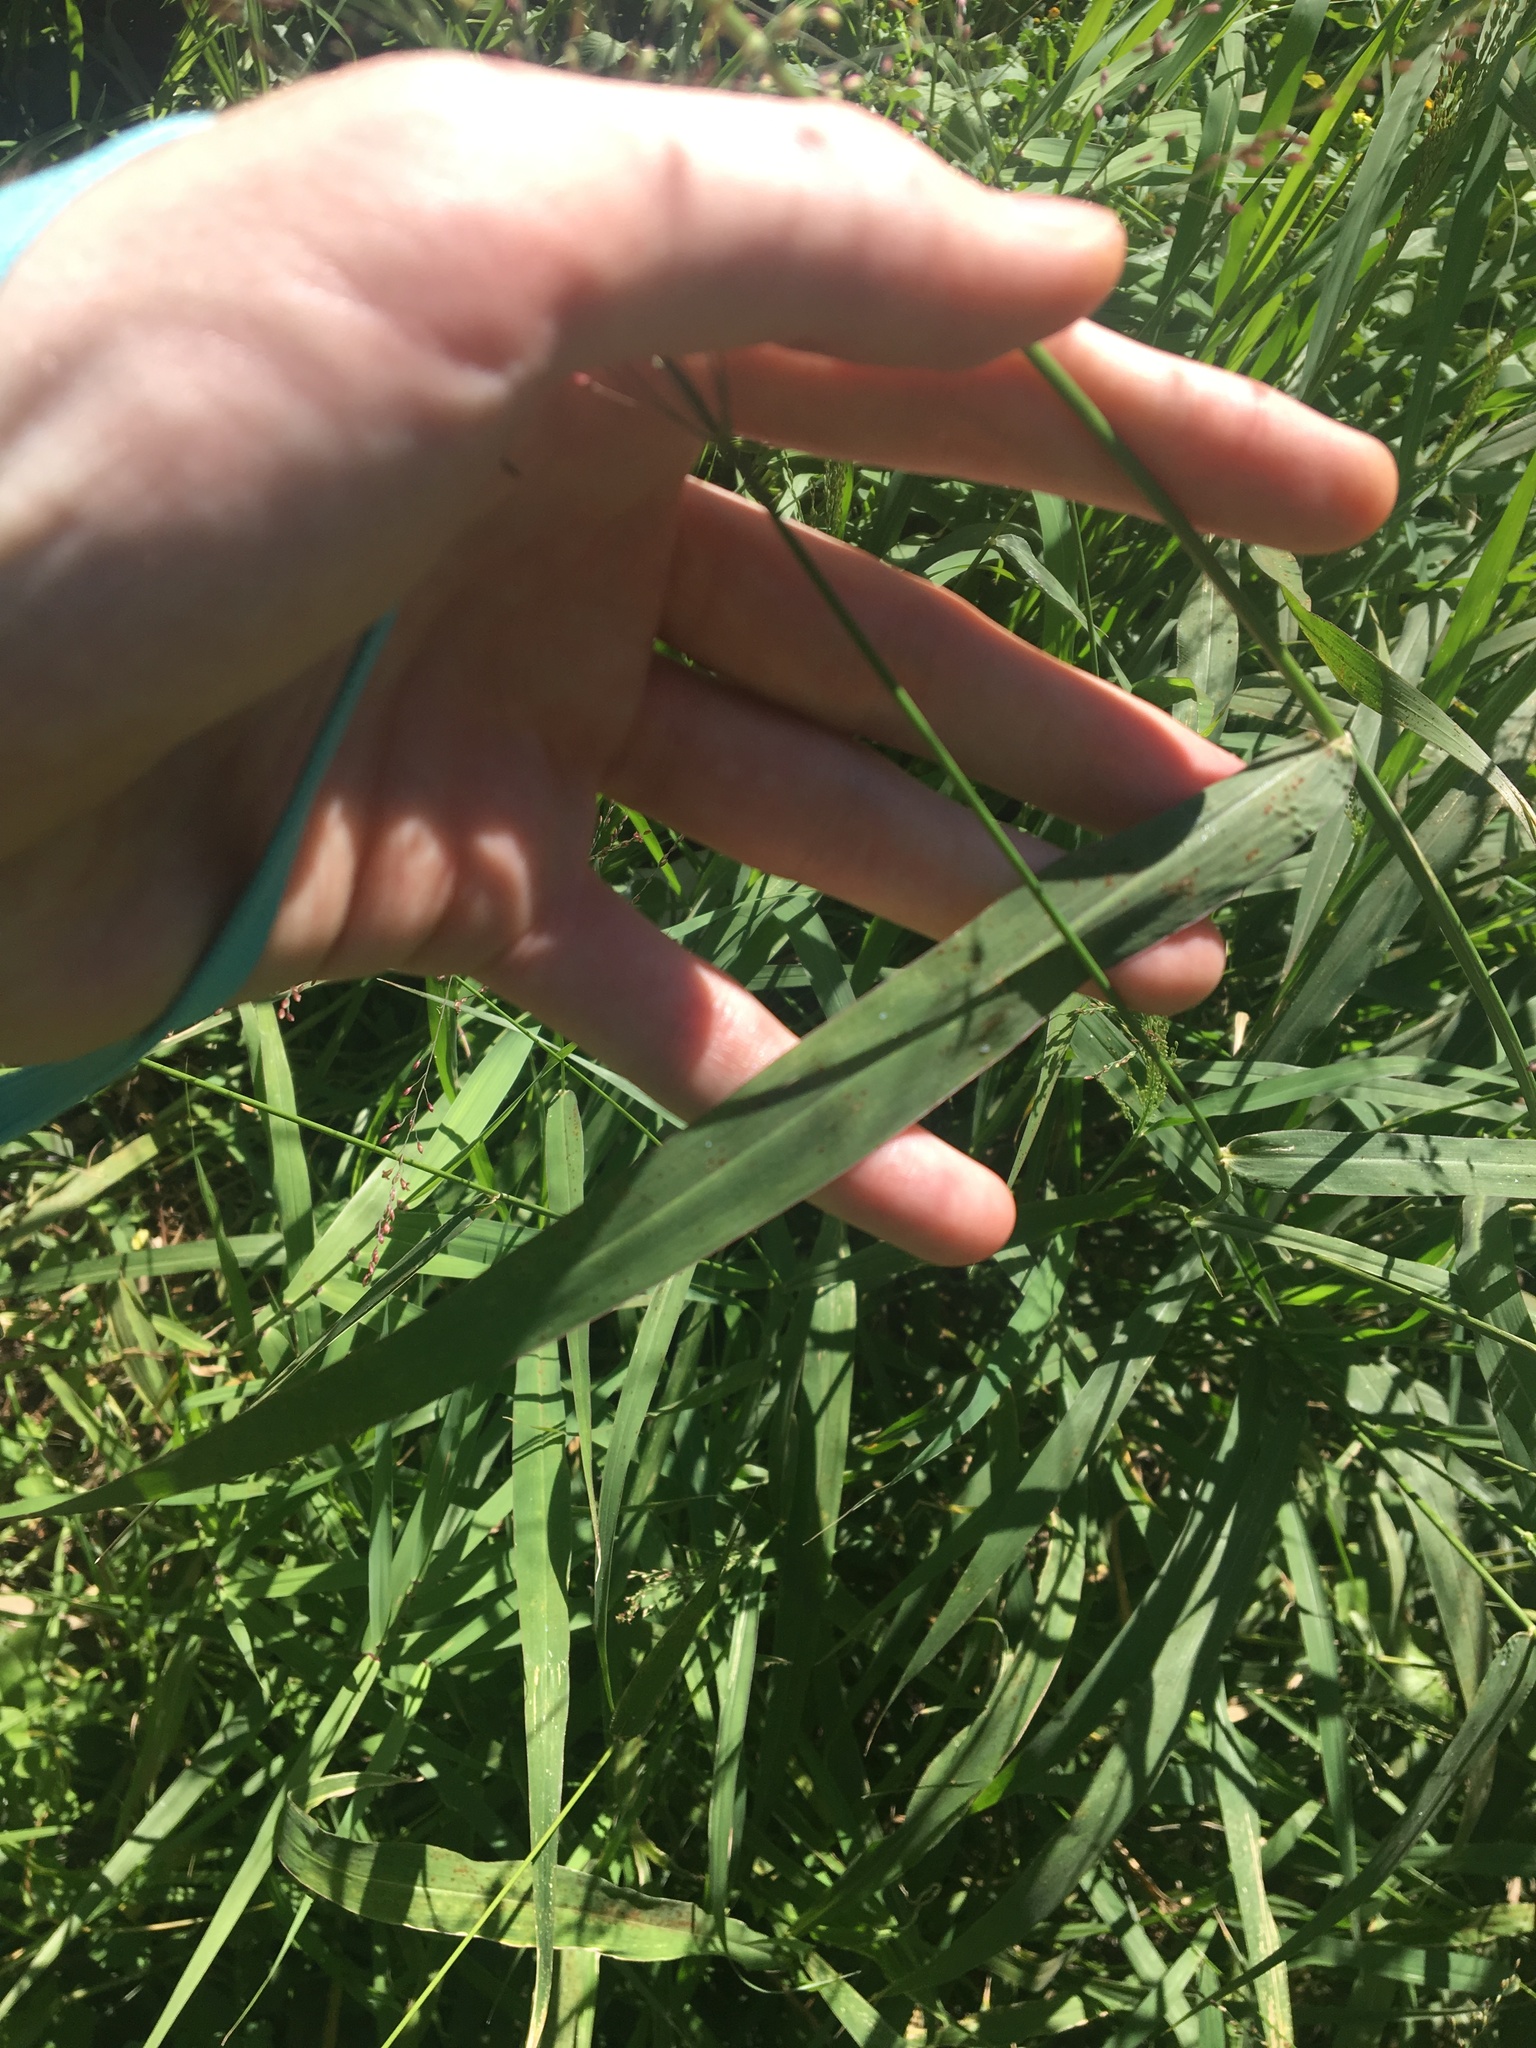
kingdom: Plantae
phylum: Tracheophyta
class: Liliopsida
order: Poales
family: Poaceae
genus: Megathyrsus
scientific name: Megathyrsus maximus
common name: Guineagrass
